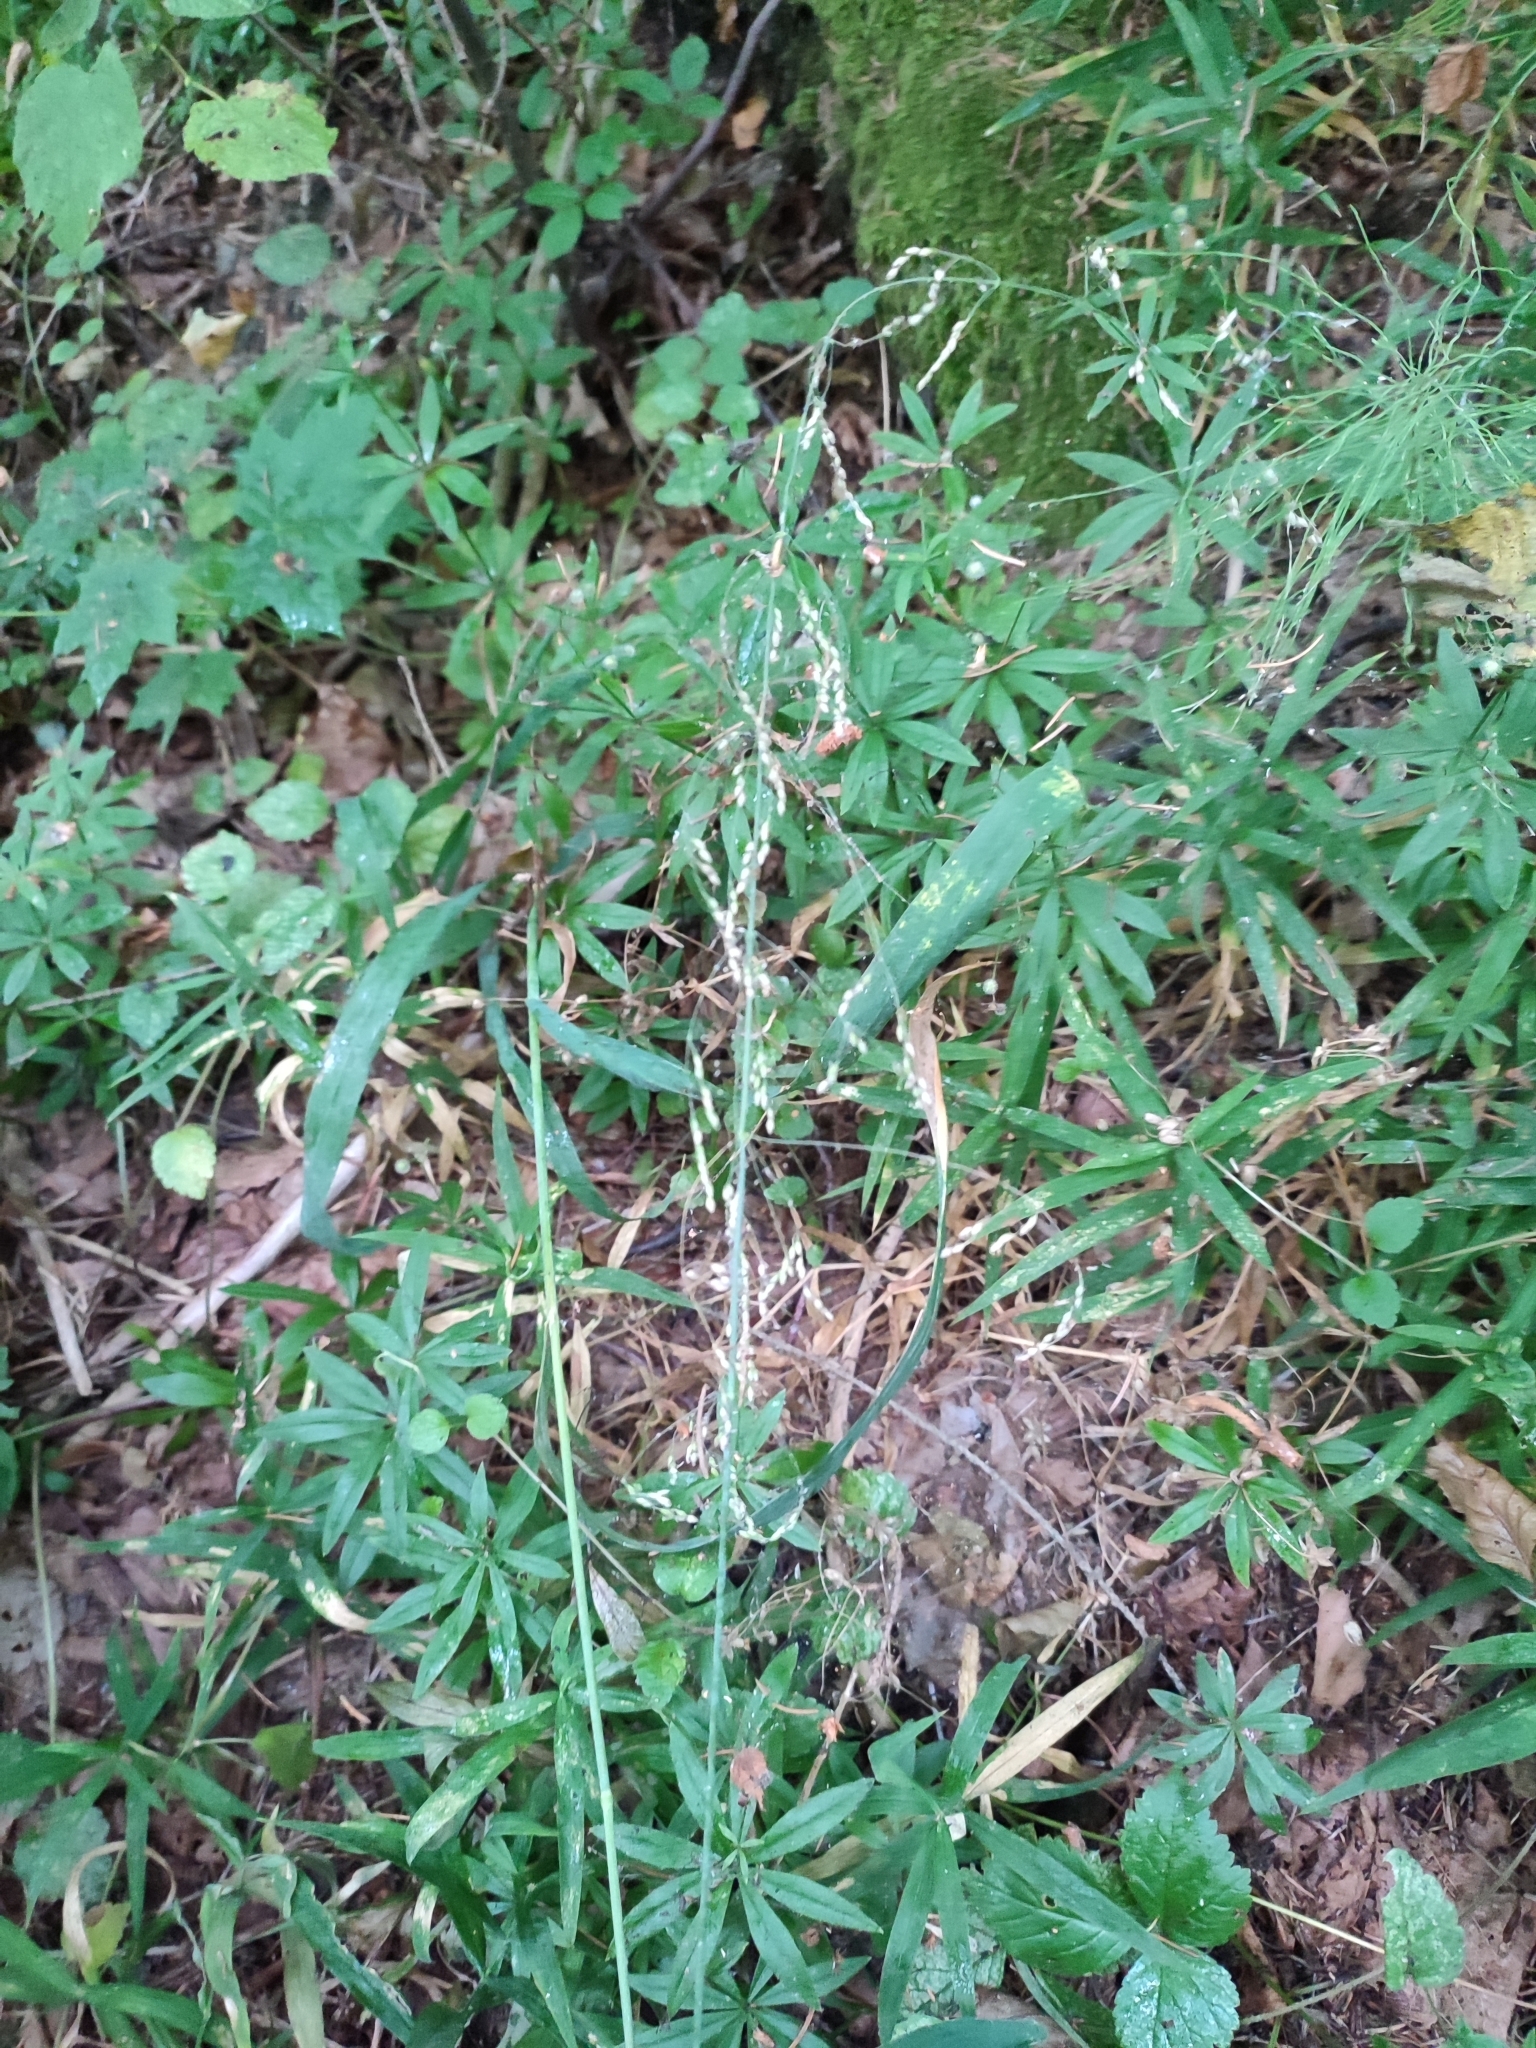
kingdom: Plantae
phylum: Tracheophyta
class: Liliopsida
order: Poales
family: Poaceae
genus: Milium
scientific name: Milium effusum
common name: Wood millet
